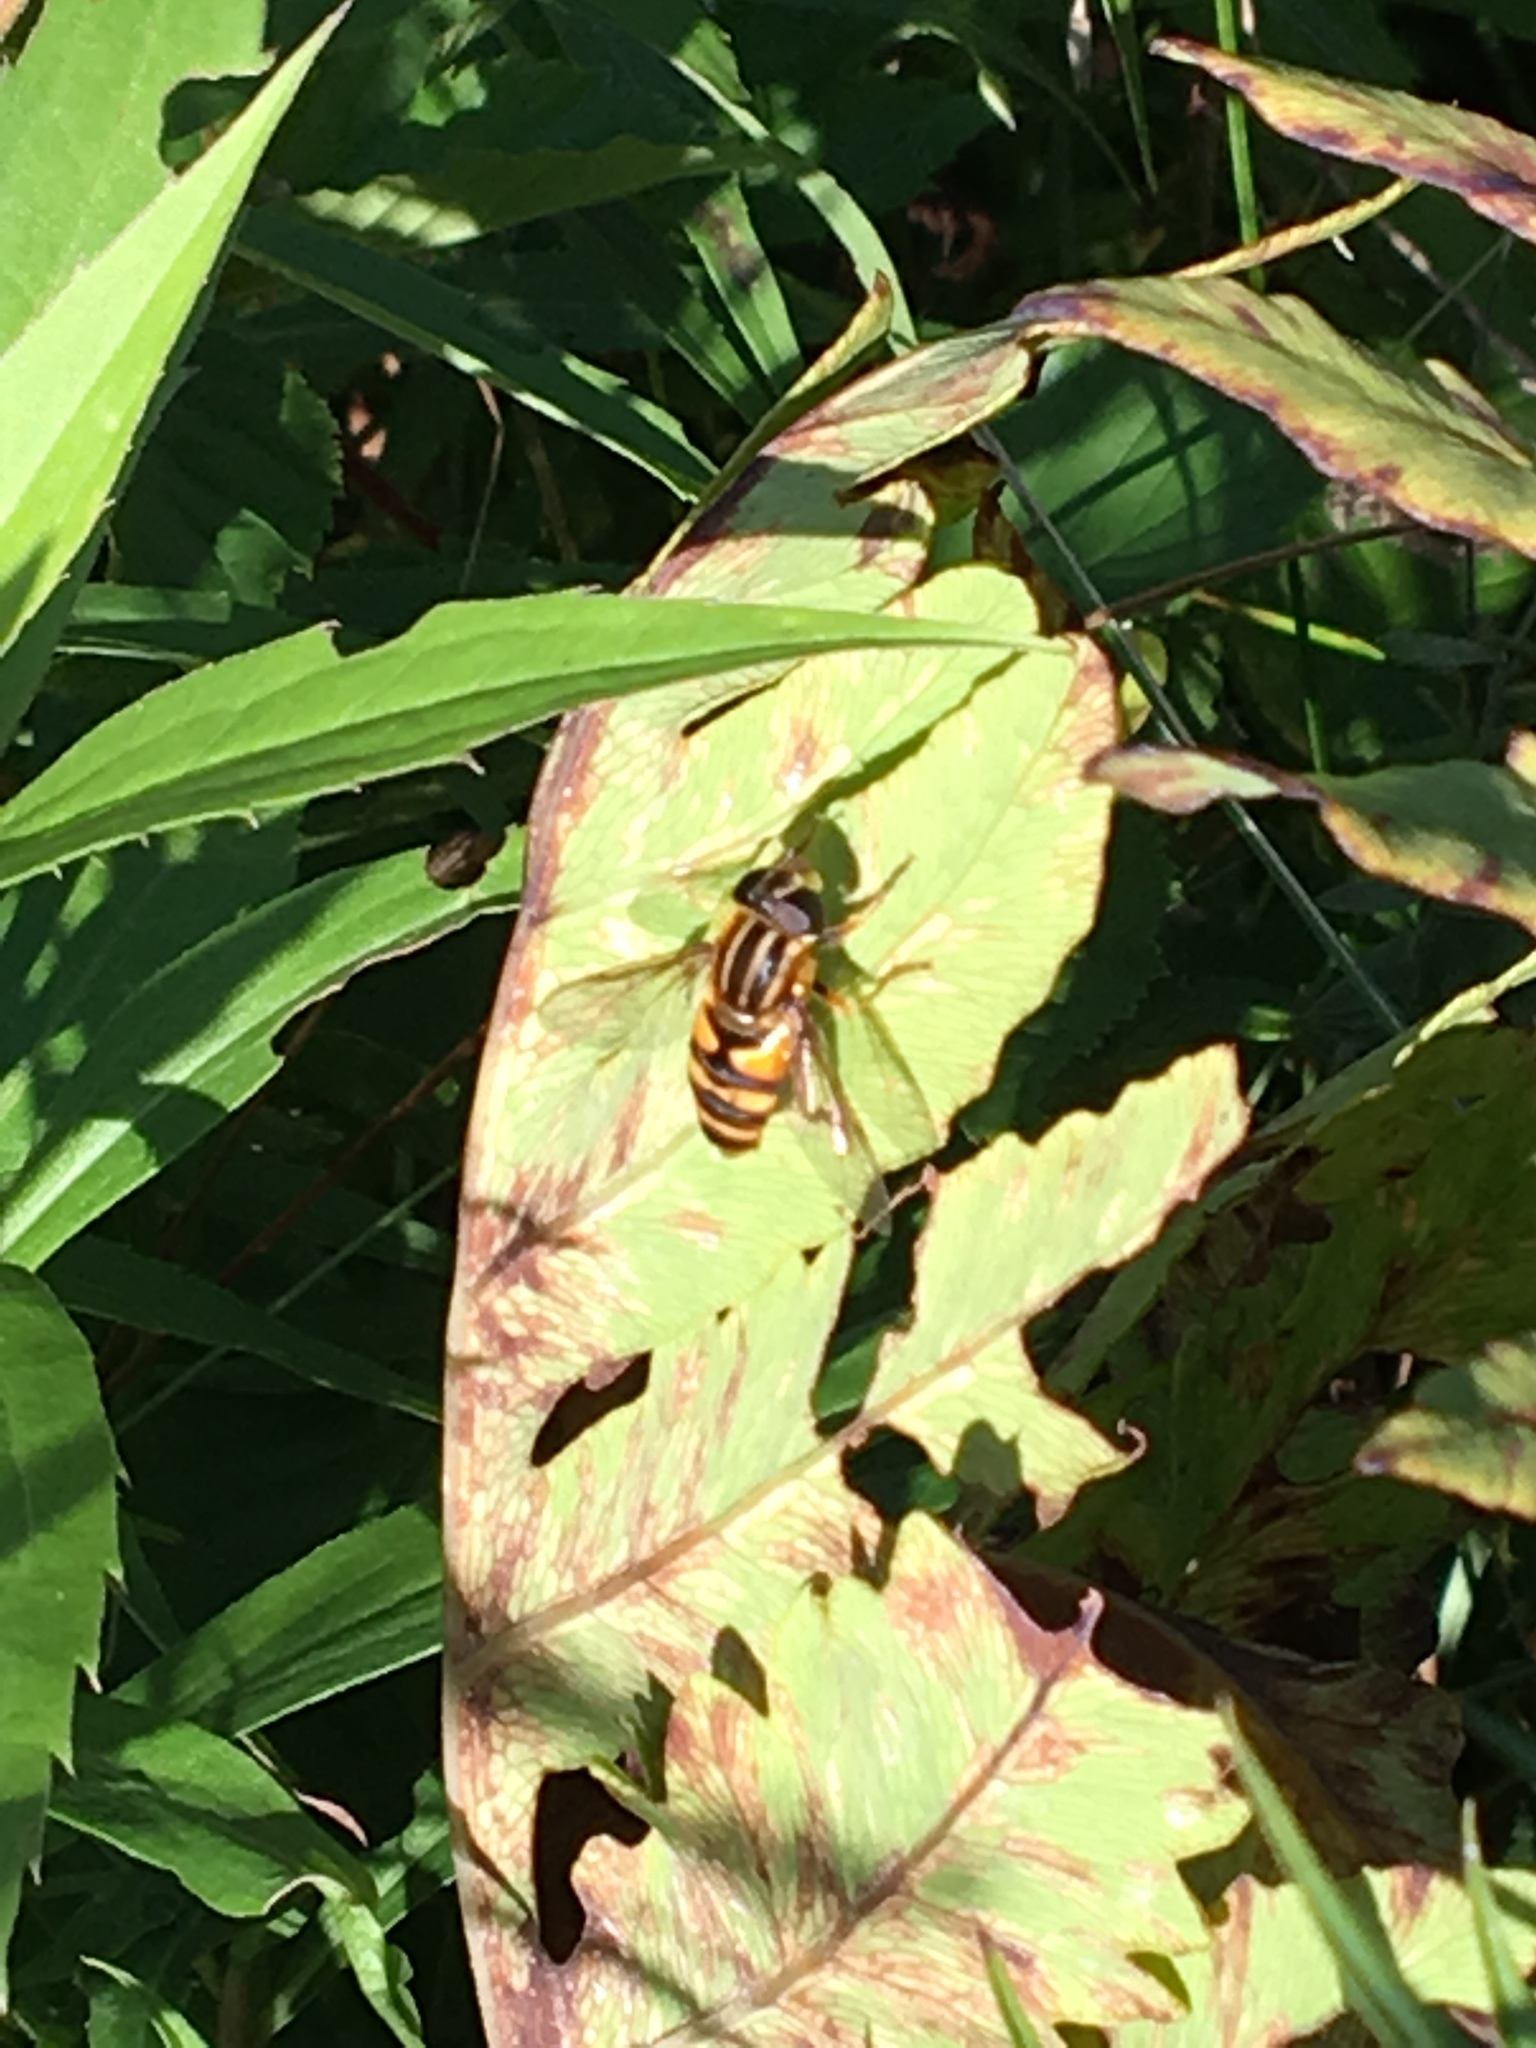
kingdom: Animalia
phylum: Arthropoda
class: Insecta
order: Diptera
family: Syrphidae
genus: Helophilus
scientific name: Helophilus fasciatus
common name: Narrow-headed marsh fly
